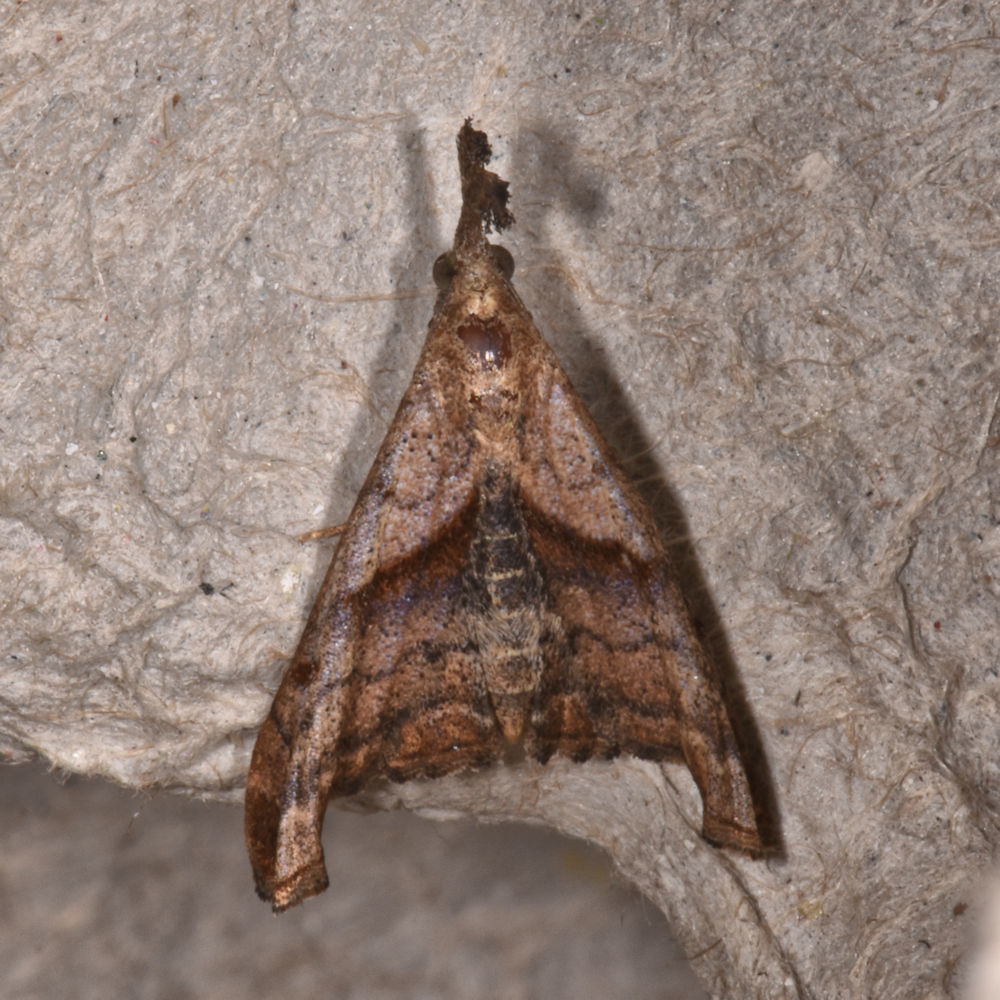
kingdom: Animalia
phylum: Arthropoda
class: Insecta
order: Lepidoptera
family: Erebidae
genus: Palthis
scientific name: Palthis angulalis
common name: Dark-spotted palthis moth
